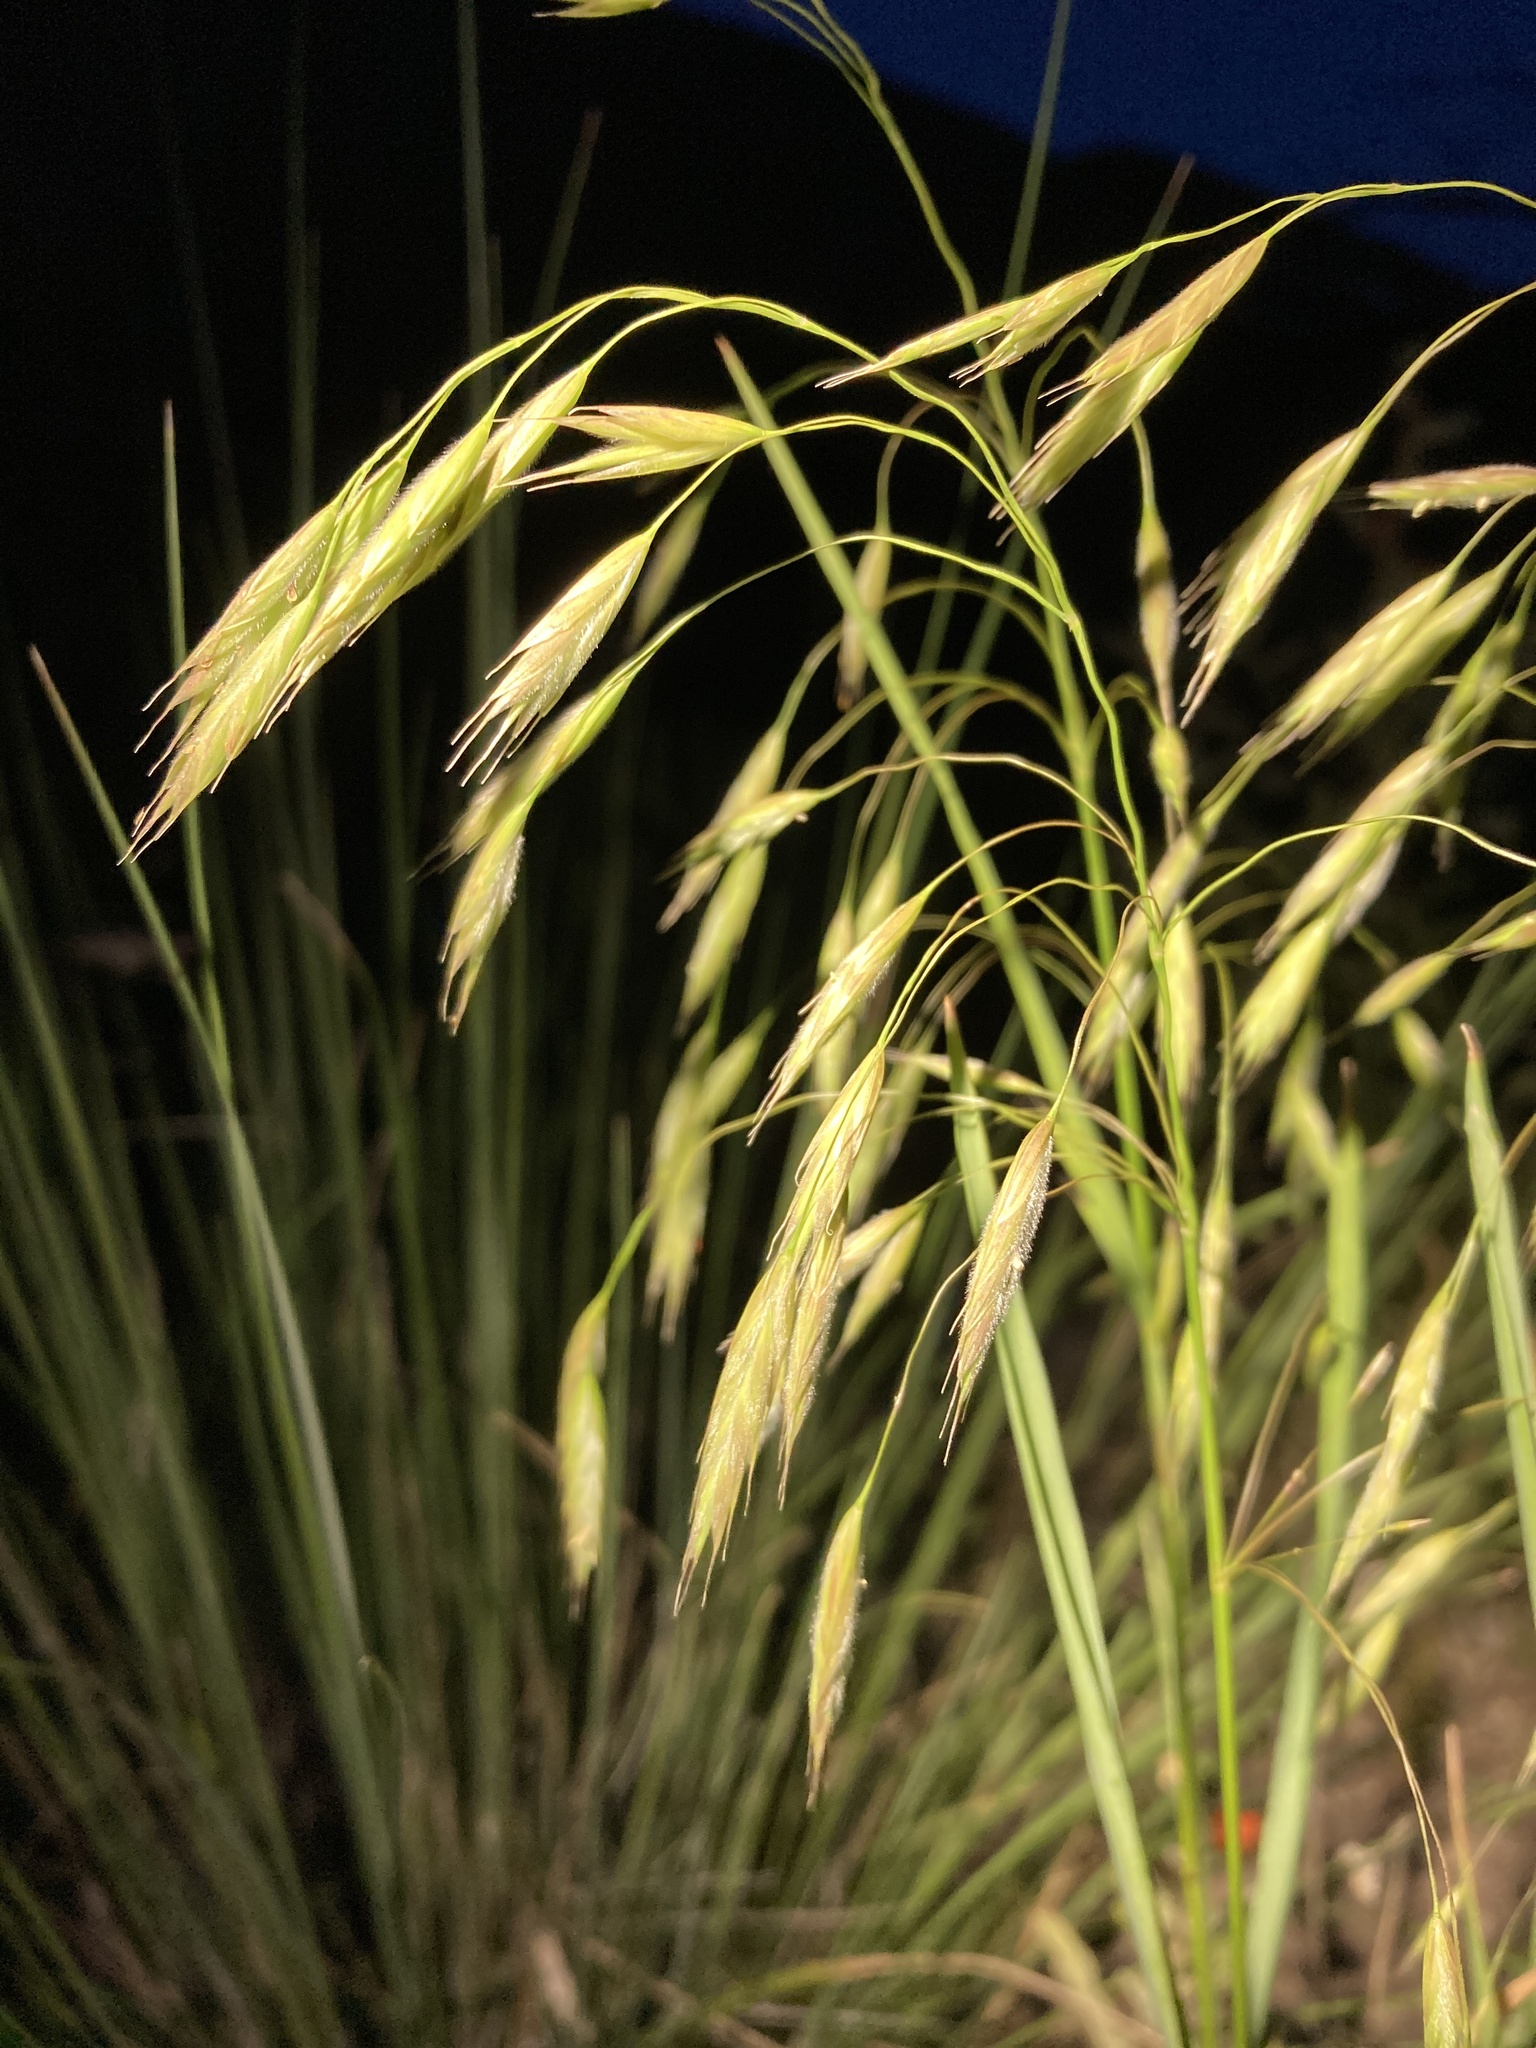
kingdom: Plantae
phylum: Tracheophyta
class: Liliopsida
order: Poales
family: Poaceae
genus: Bromus
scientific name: Bromus frondosus
